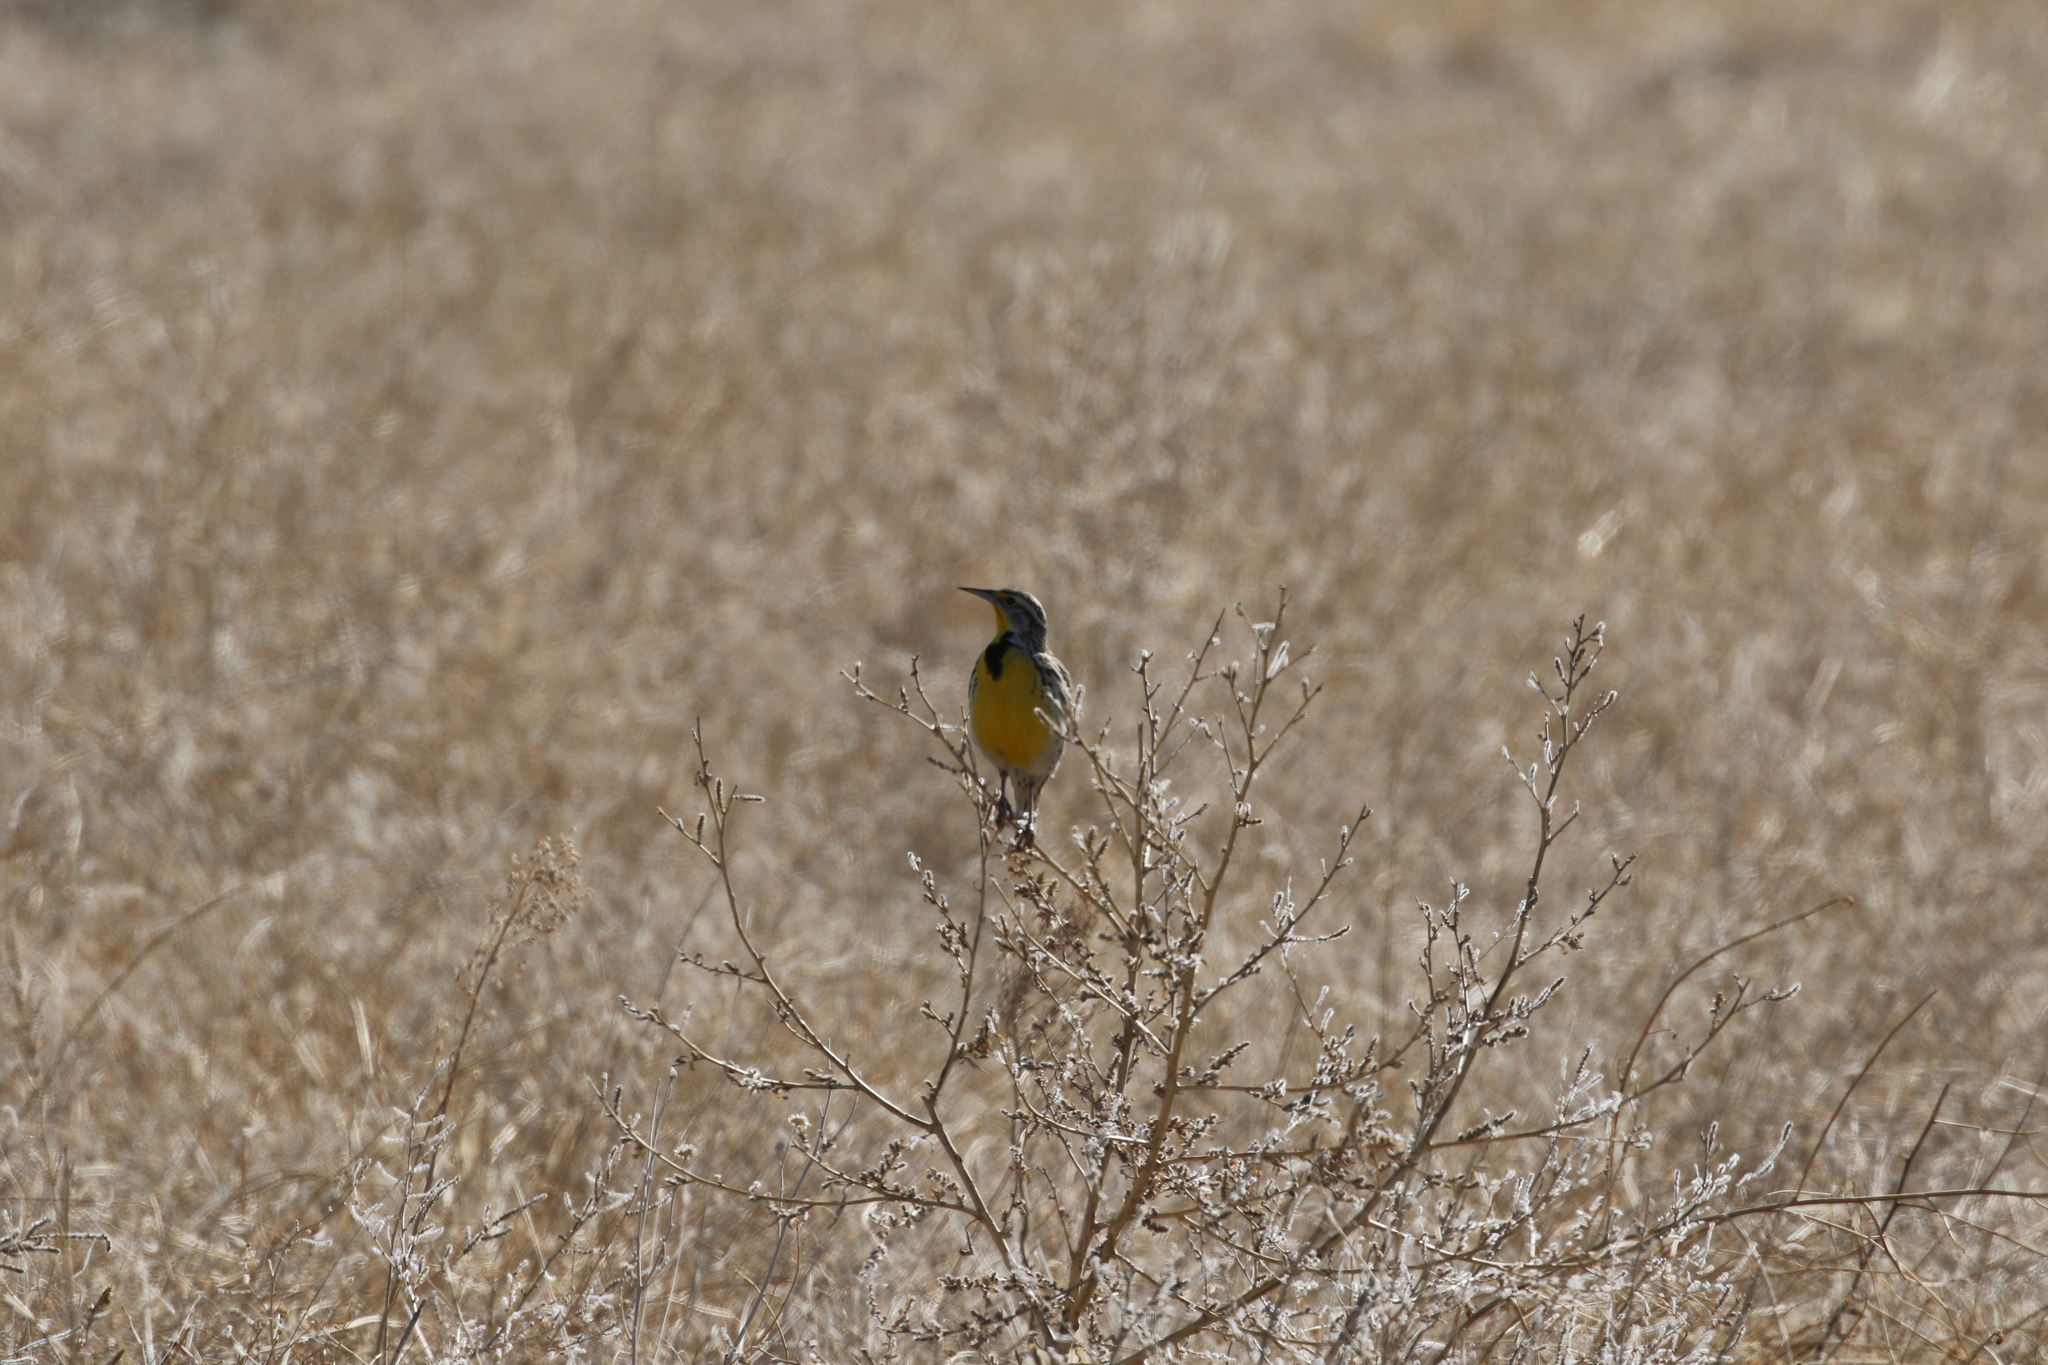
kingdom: Animalia
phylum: Chordata
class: Aves
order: Passeriformes
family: Icteridae
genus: Sturnella
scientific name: Sturnella neglecta
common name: Western meadowlark
